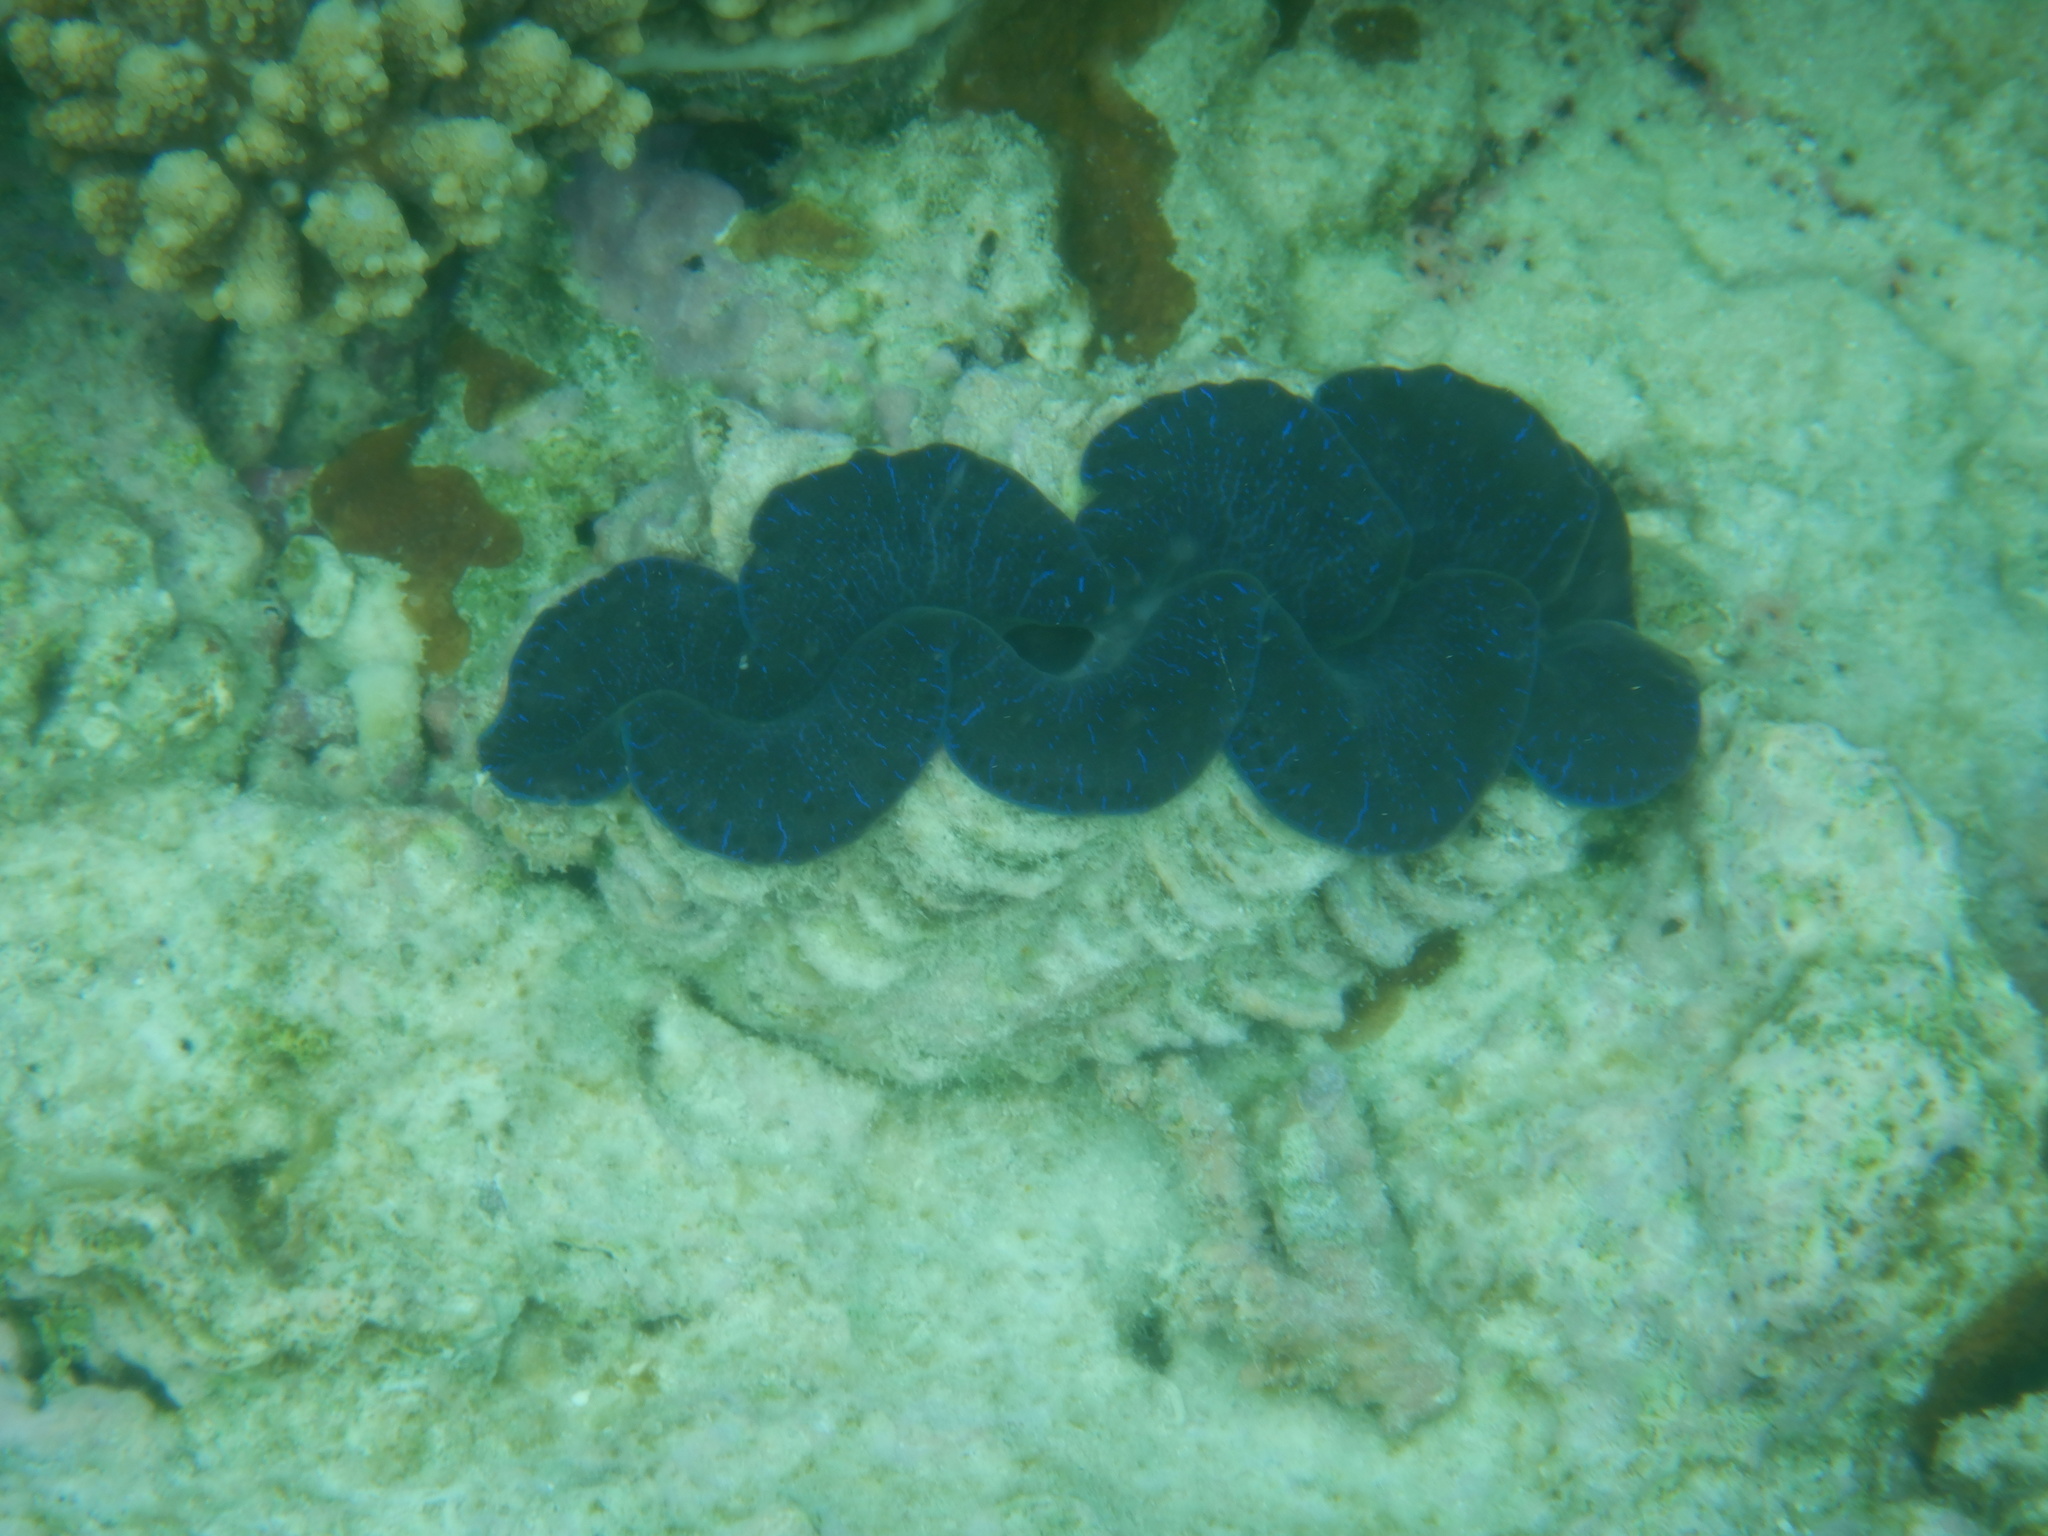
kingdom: Animalia
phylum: Mollusca
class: Bivalvia
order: Cardiida
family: Cardiidae
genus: Tridacna
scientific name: Tridacna maxima
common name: Small giant clam
